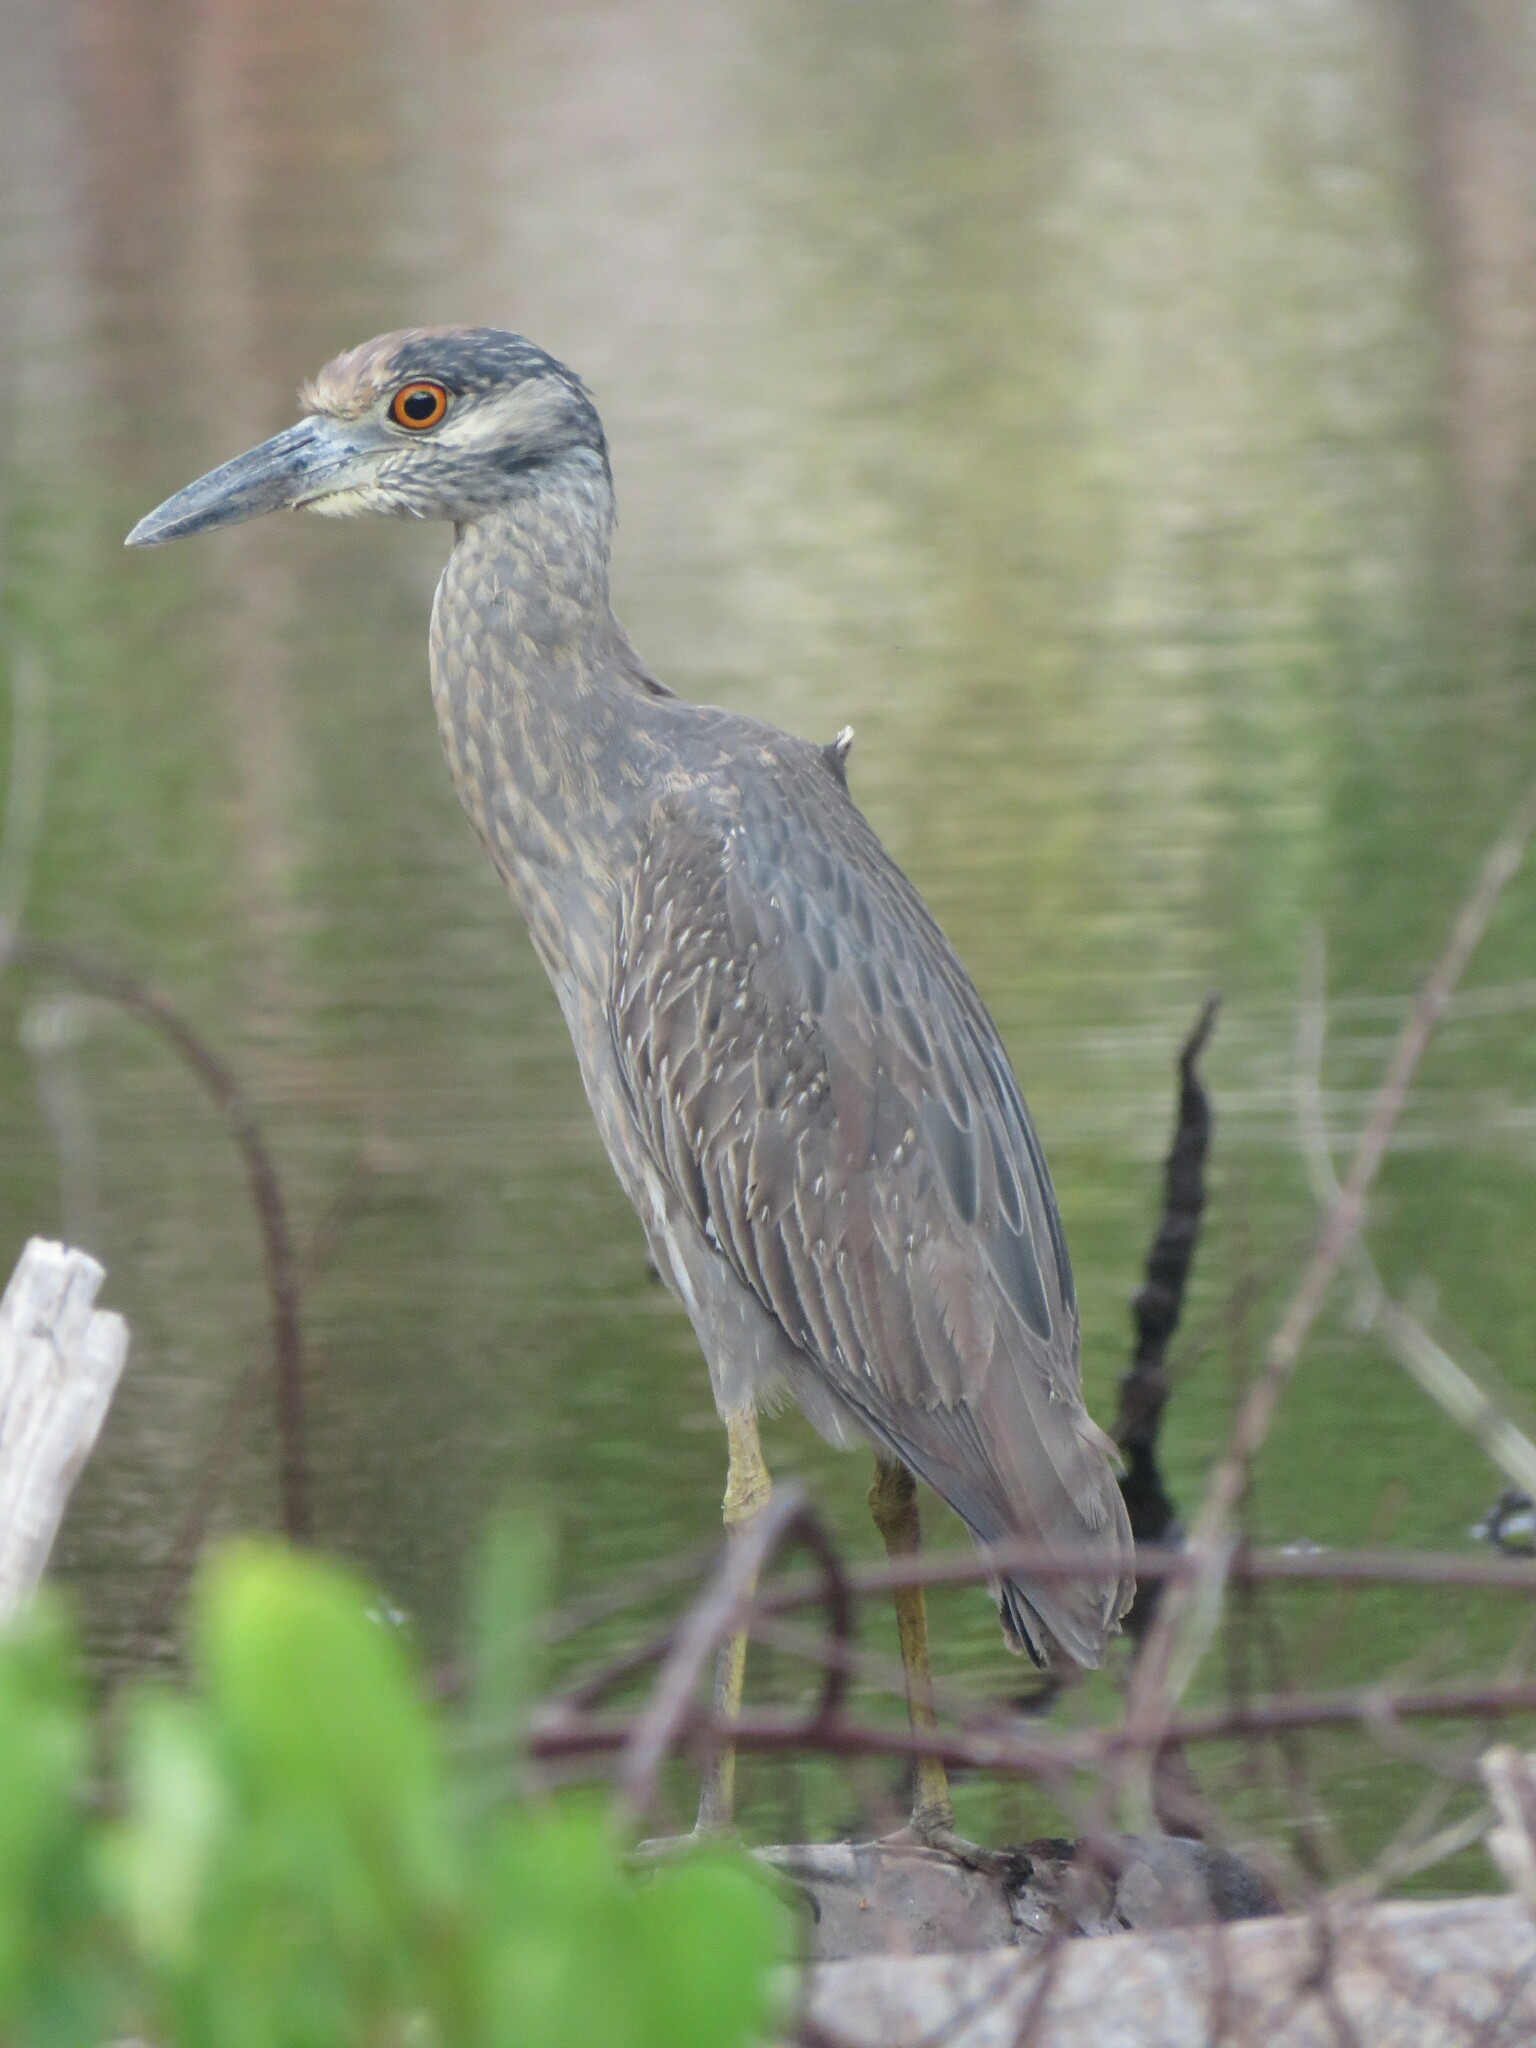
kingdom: Animalia
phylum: Chordata
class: Aves
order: Pelecaniformes
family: Ardeidae
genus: Nyctanassa
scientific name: Nyctanassa violacea
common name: Yellow-crowned night heron
